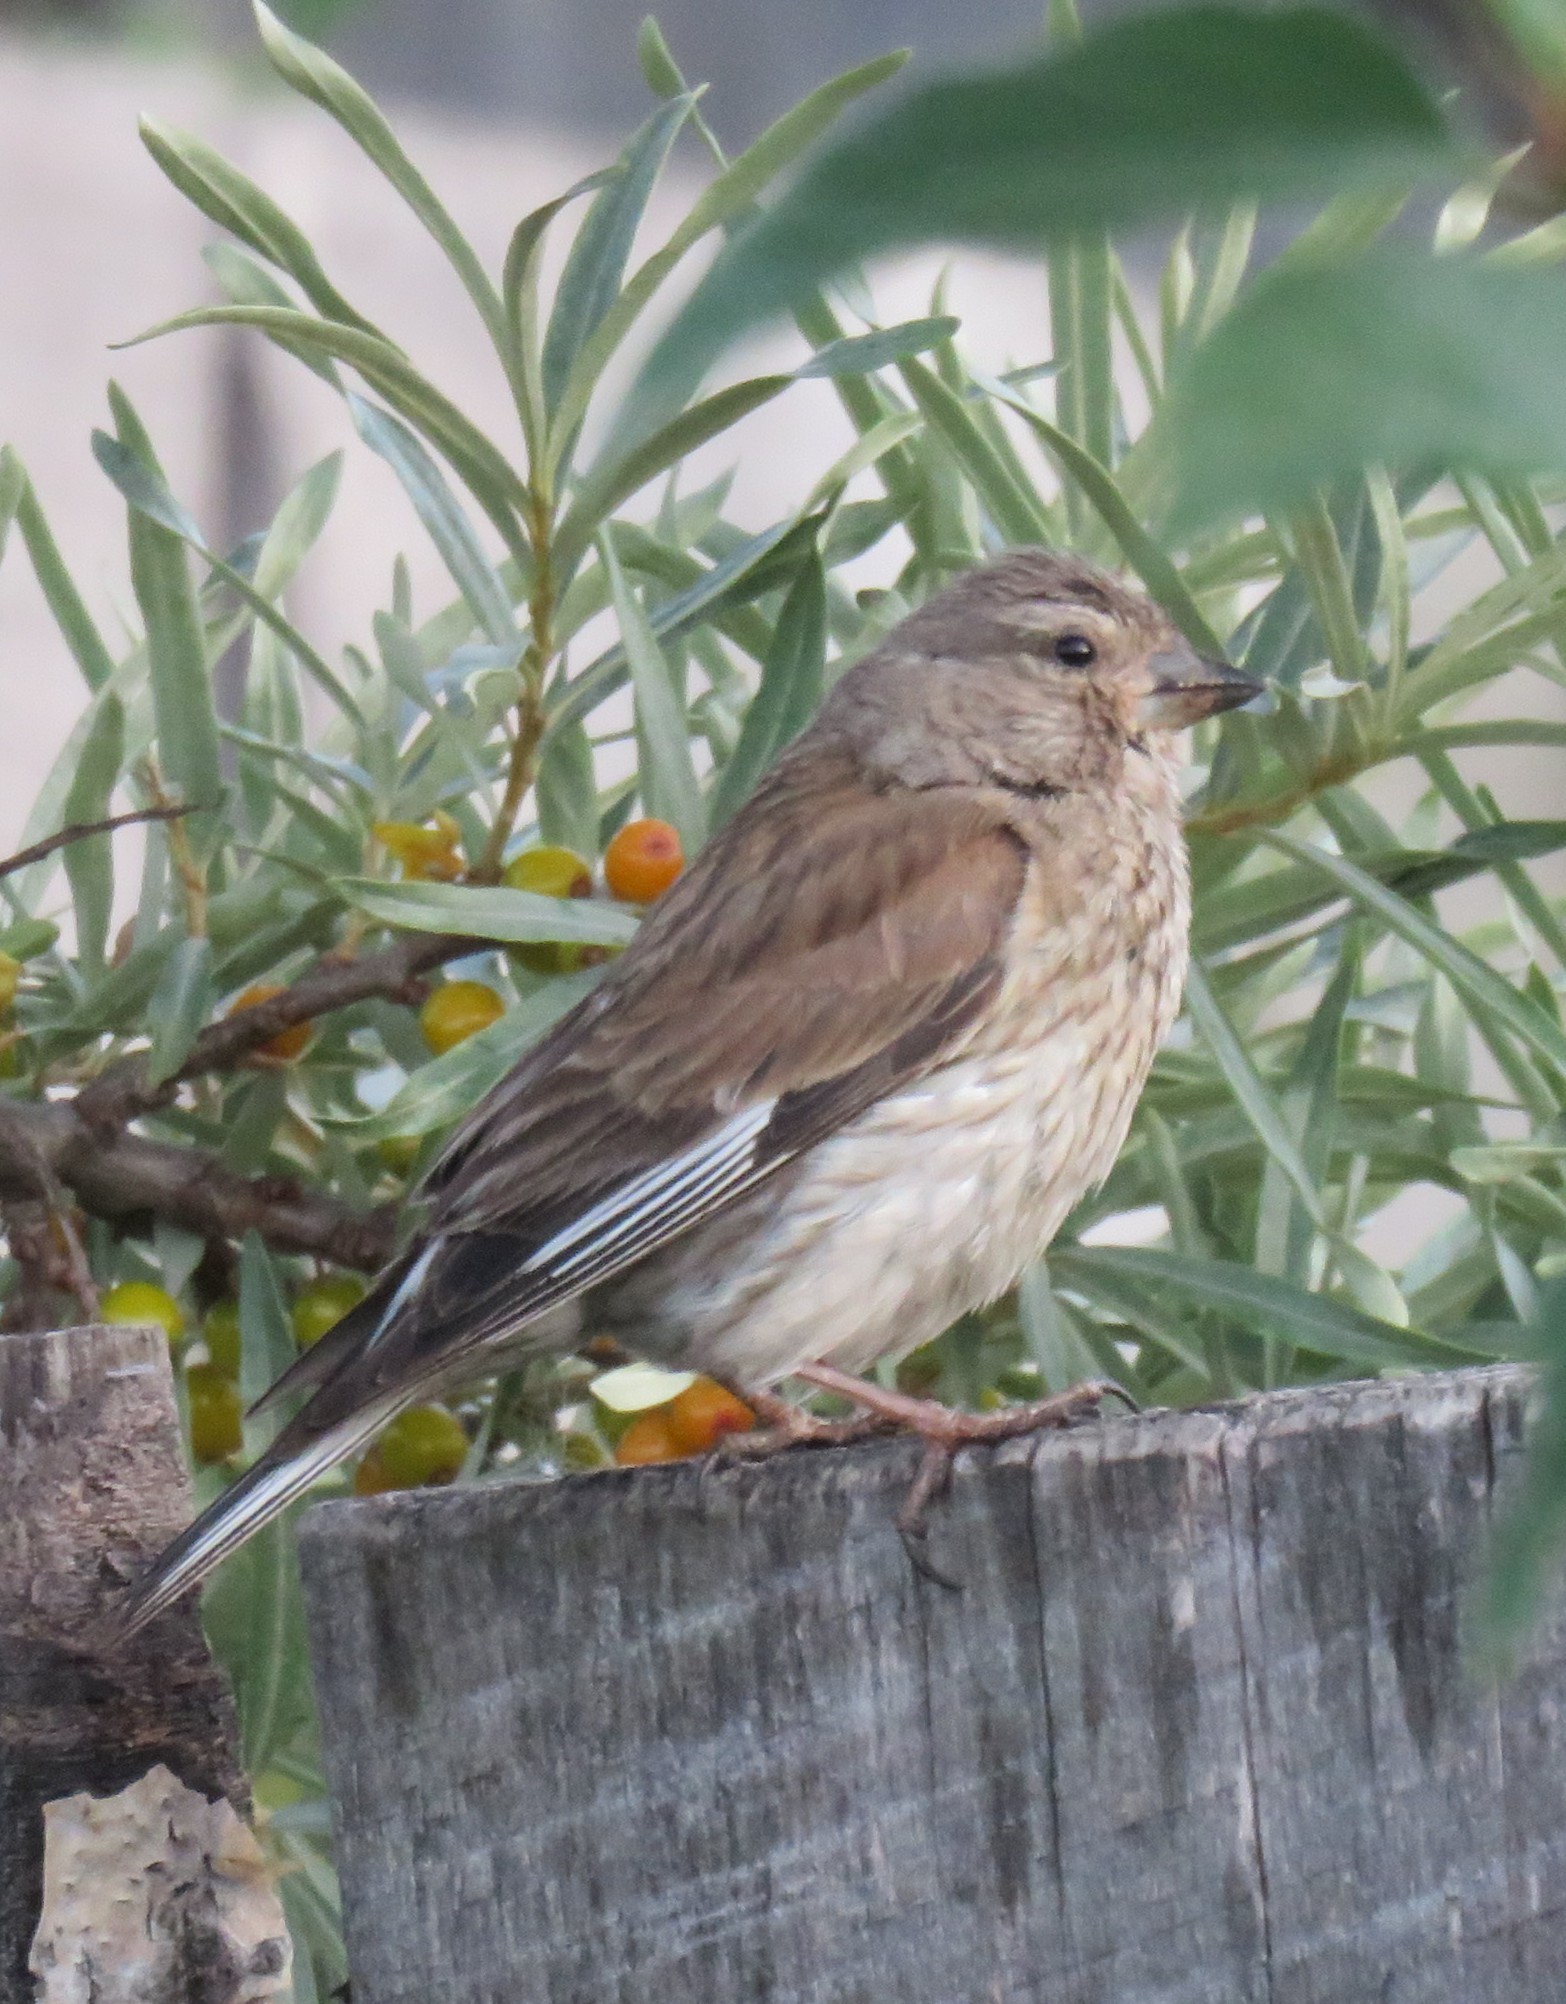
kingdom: Animalia
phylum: Chordata
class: Aves
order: Passeriformes
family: Fringillidae
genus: Linaria
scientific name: Linaria cannabina
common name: Common linnet
